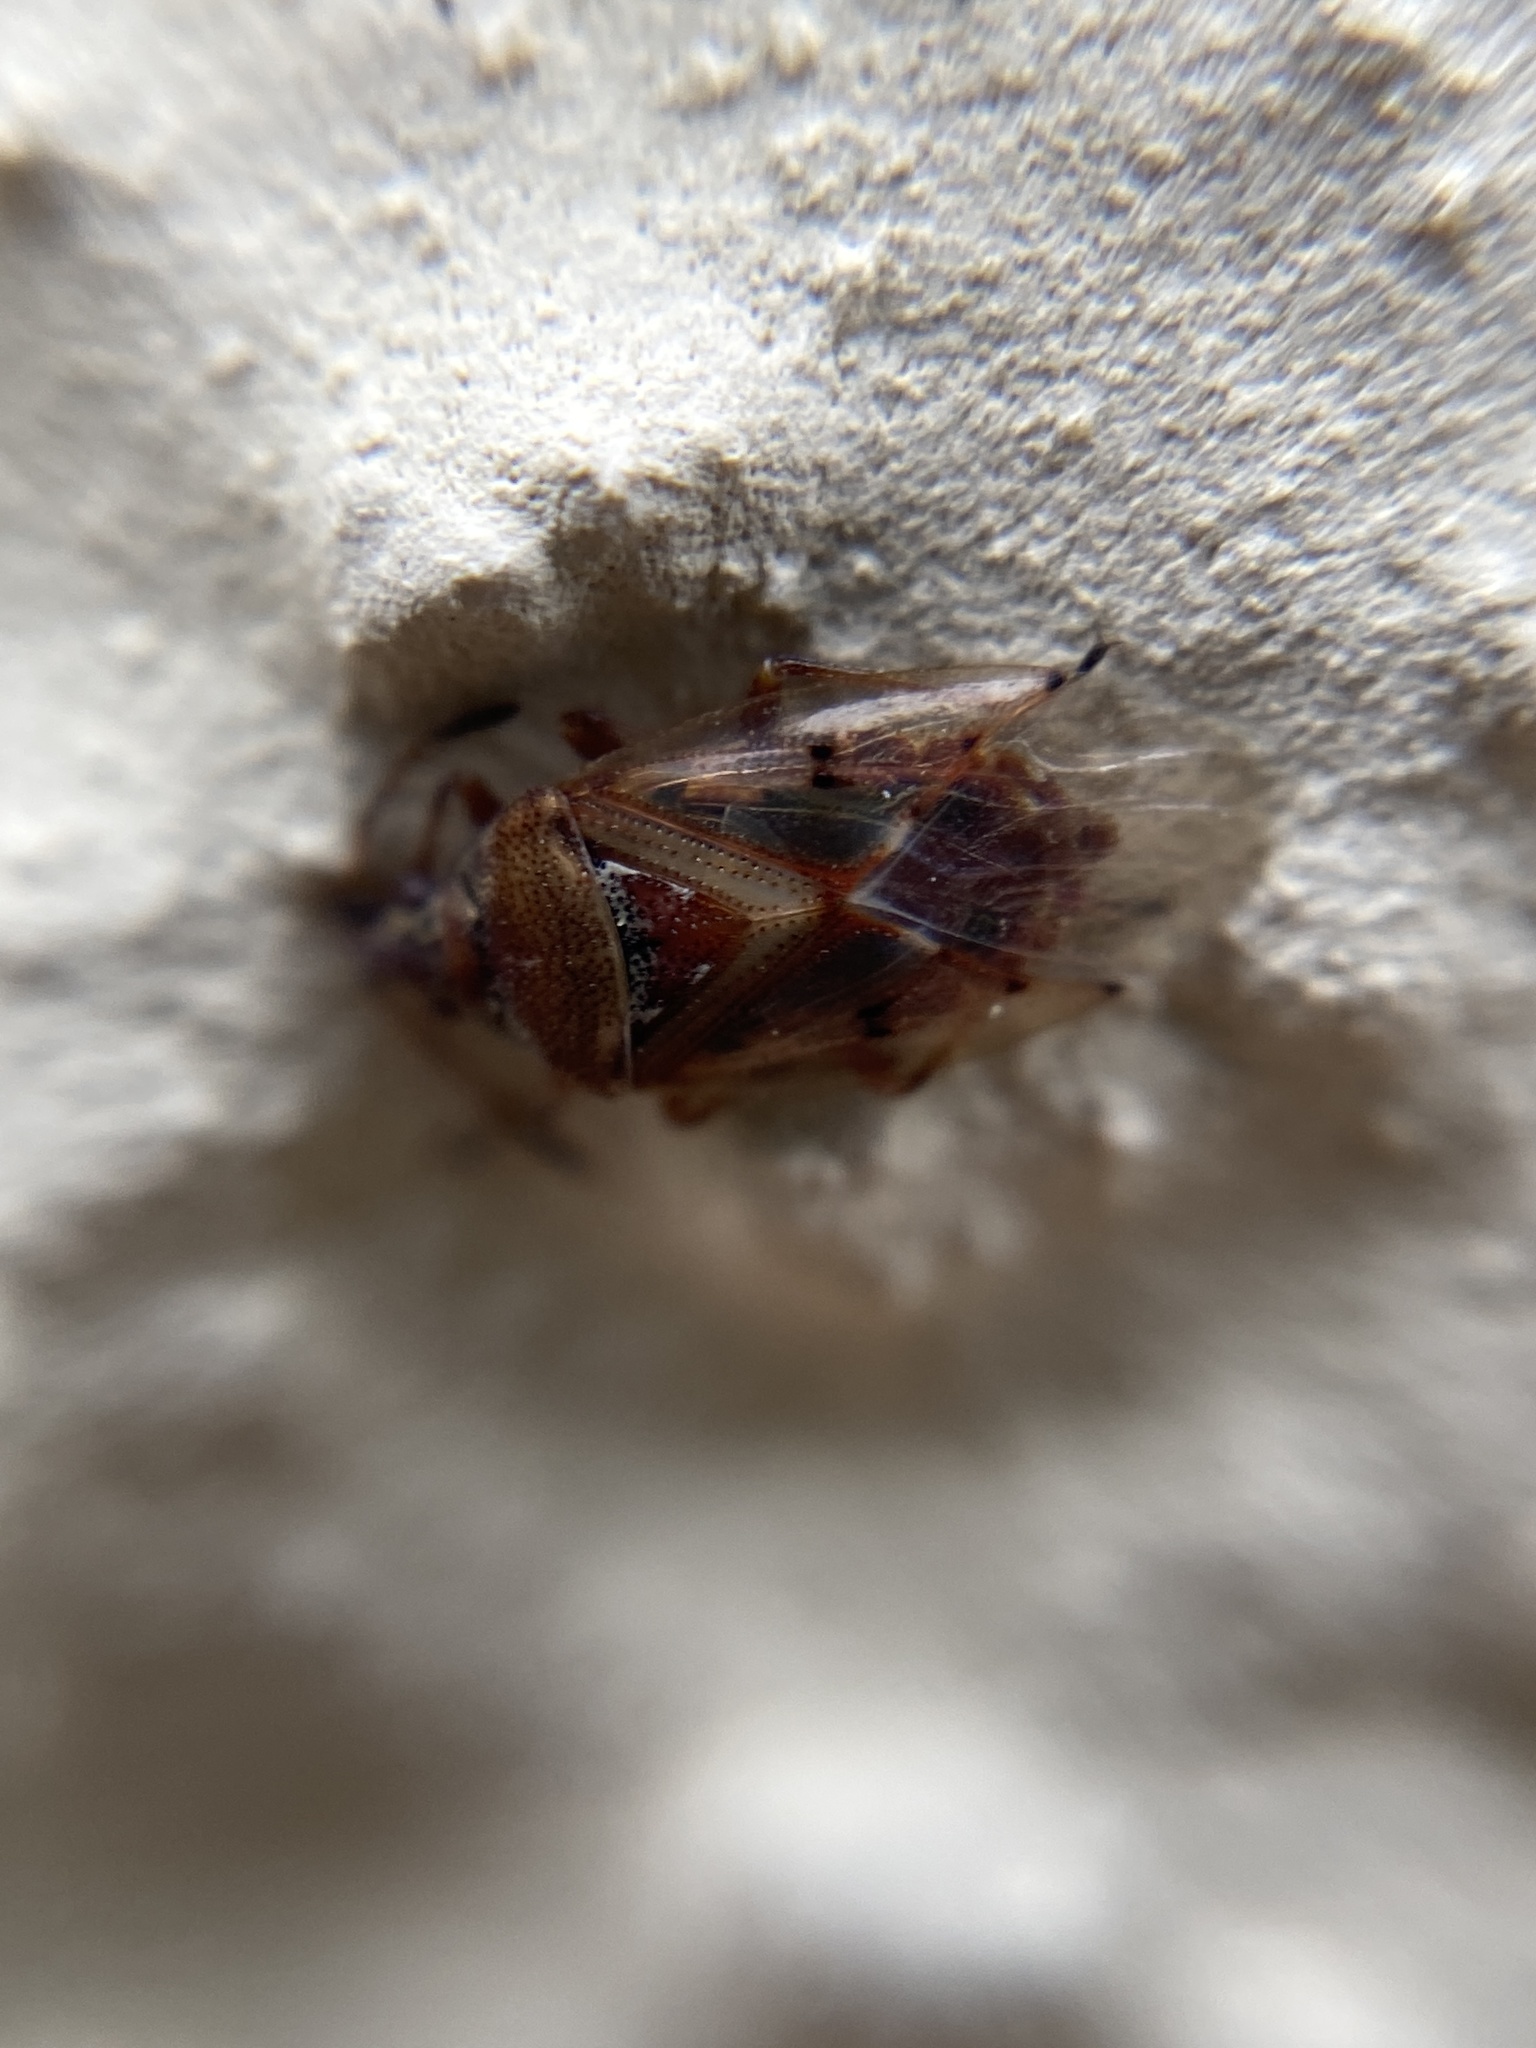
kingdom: Animalia
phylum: Arthropoda
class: Insecta
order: Hemiptera
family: Lygaeidae
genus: Kleidocerys
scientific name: Kleidocerys resedae
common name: Birch catkin bug
